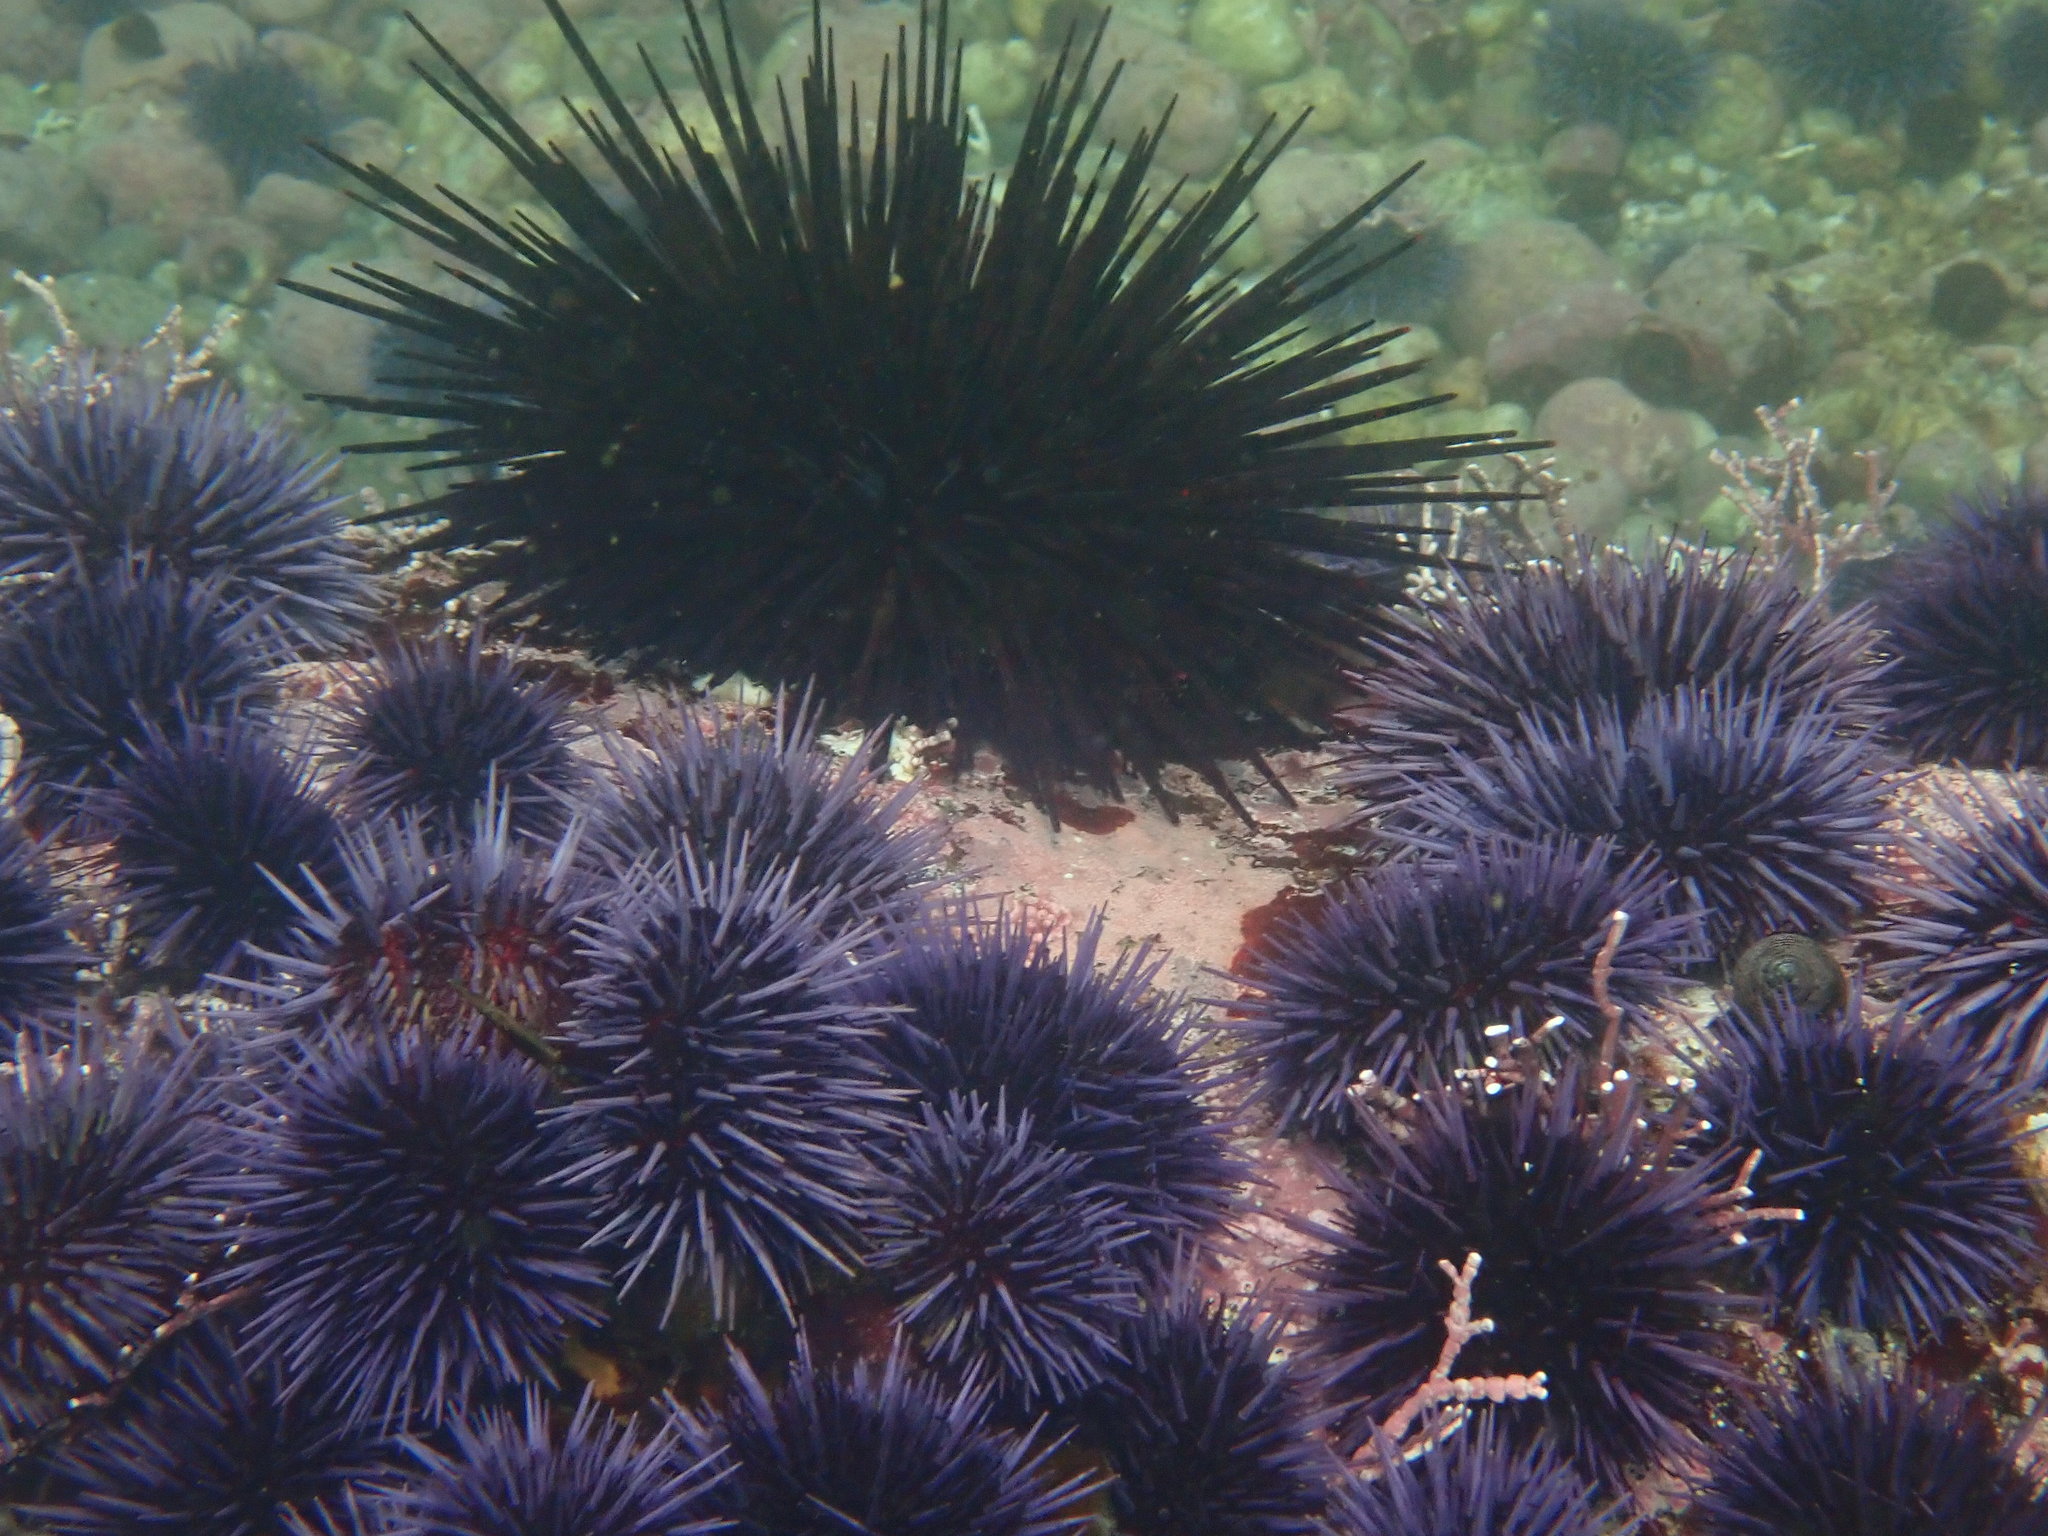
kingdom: Animalia
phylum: Echinodermata
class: Echinoidea
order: Camarodonta
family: Strongylocentrotidae
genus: Mesocentrotus
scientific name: Mesocentrotus franciscanus
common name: Red sea urchin
